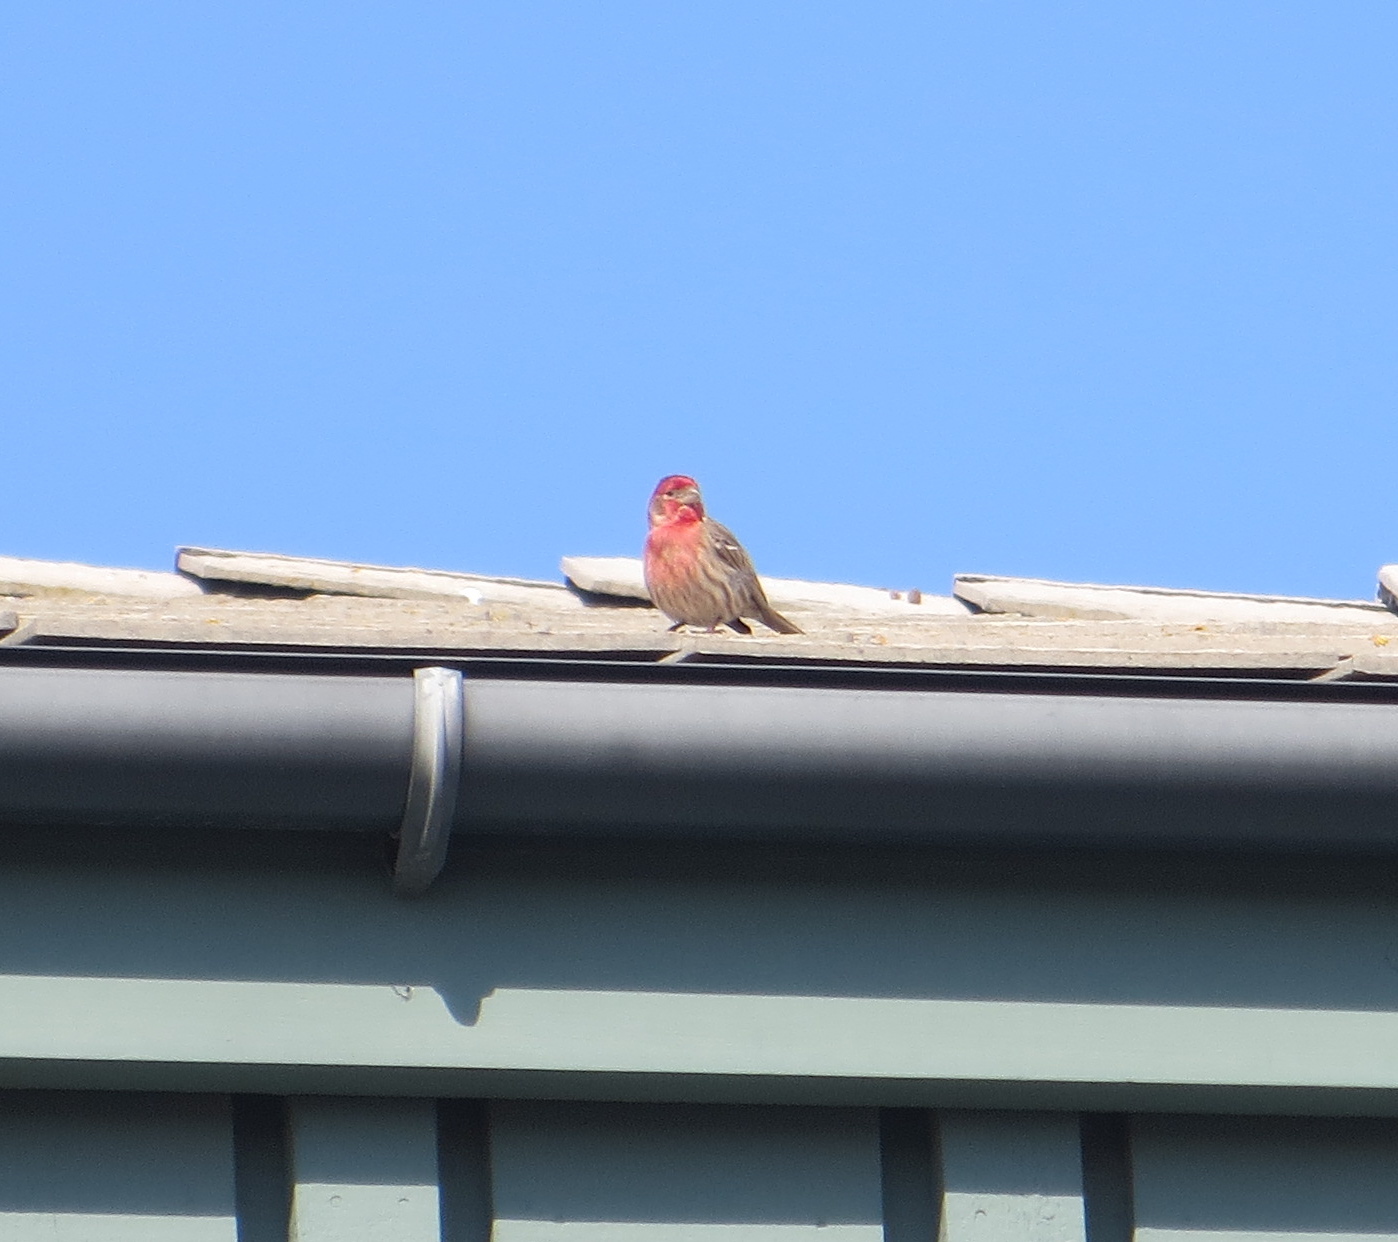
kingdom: Animalia
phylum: Chordata
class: Aves
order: Passeriformes
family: Fringillidae
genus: Haemorhous
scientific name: Haemorhous mexicanus
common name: House finch
